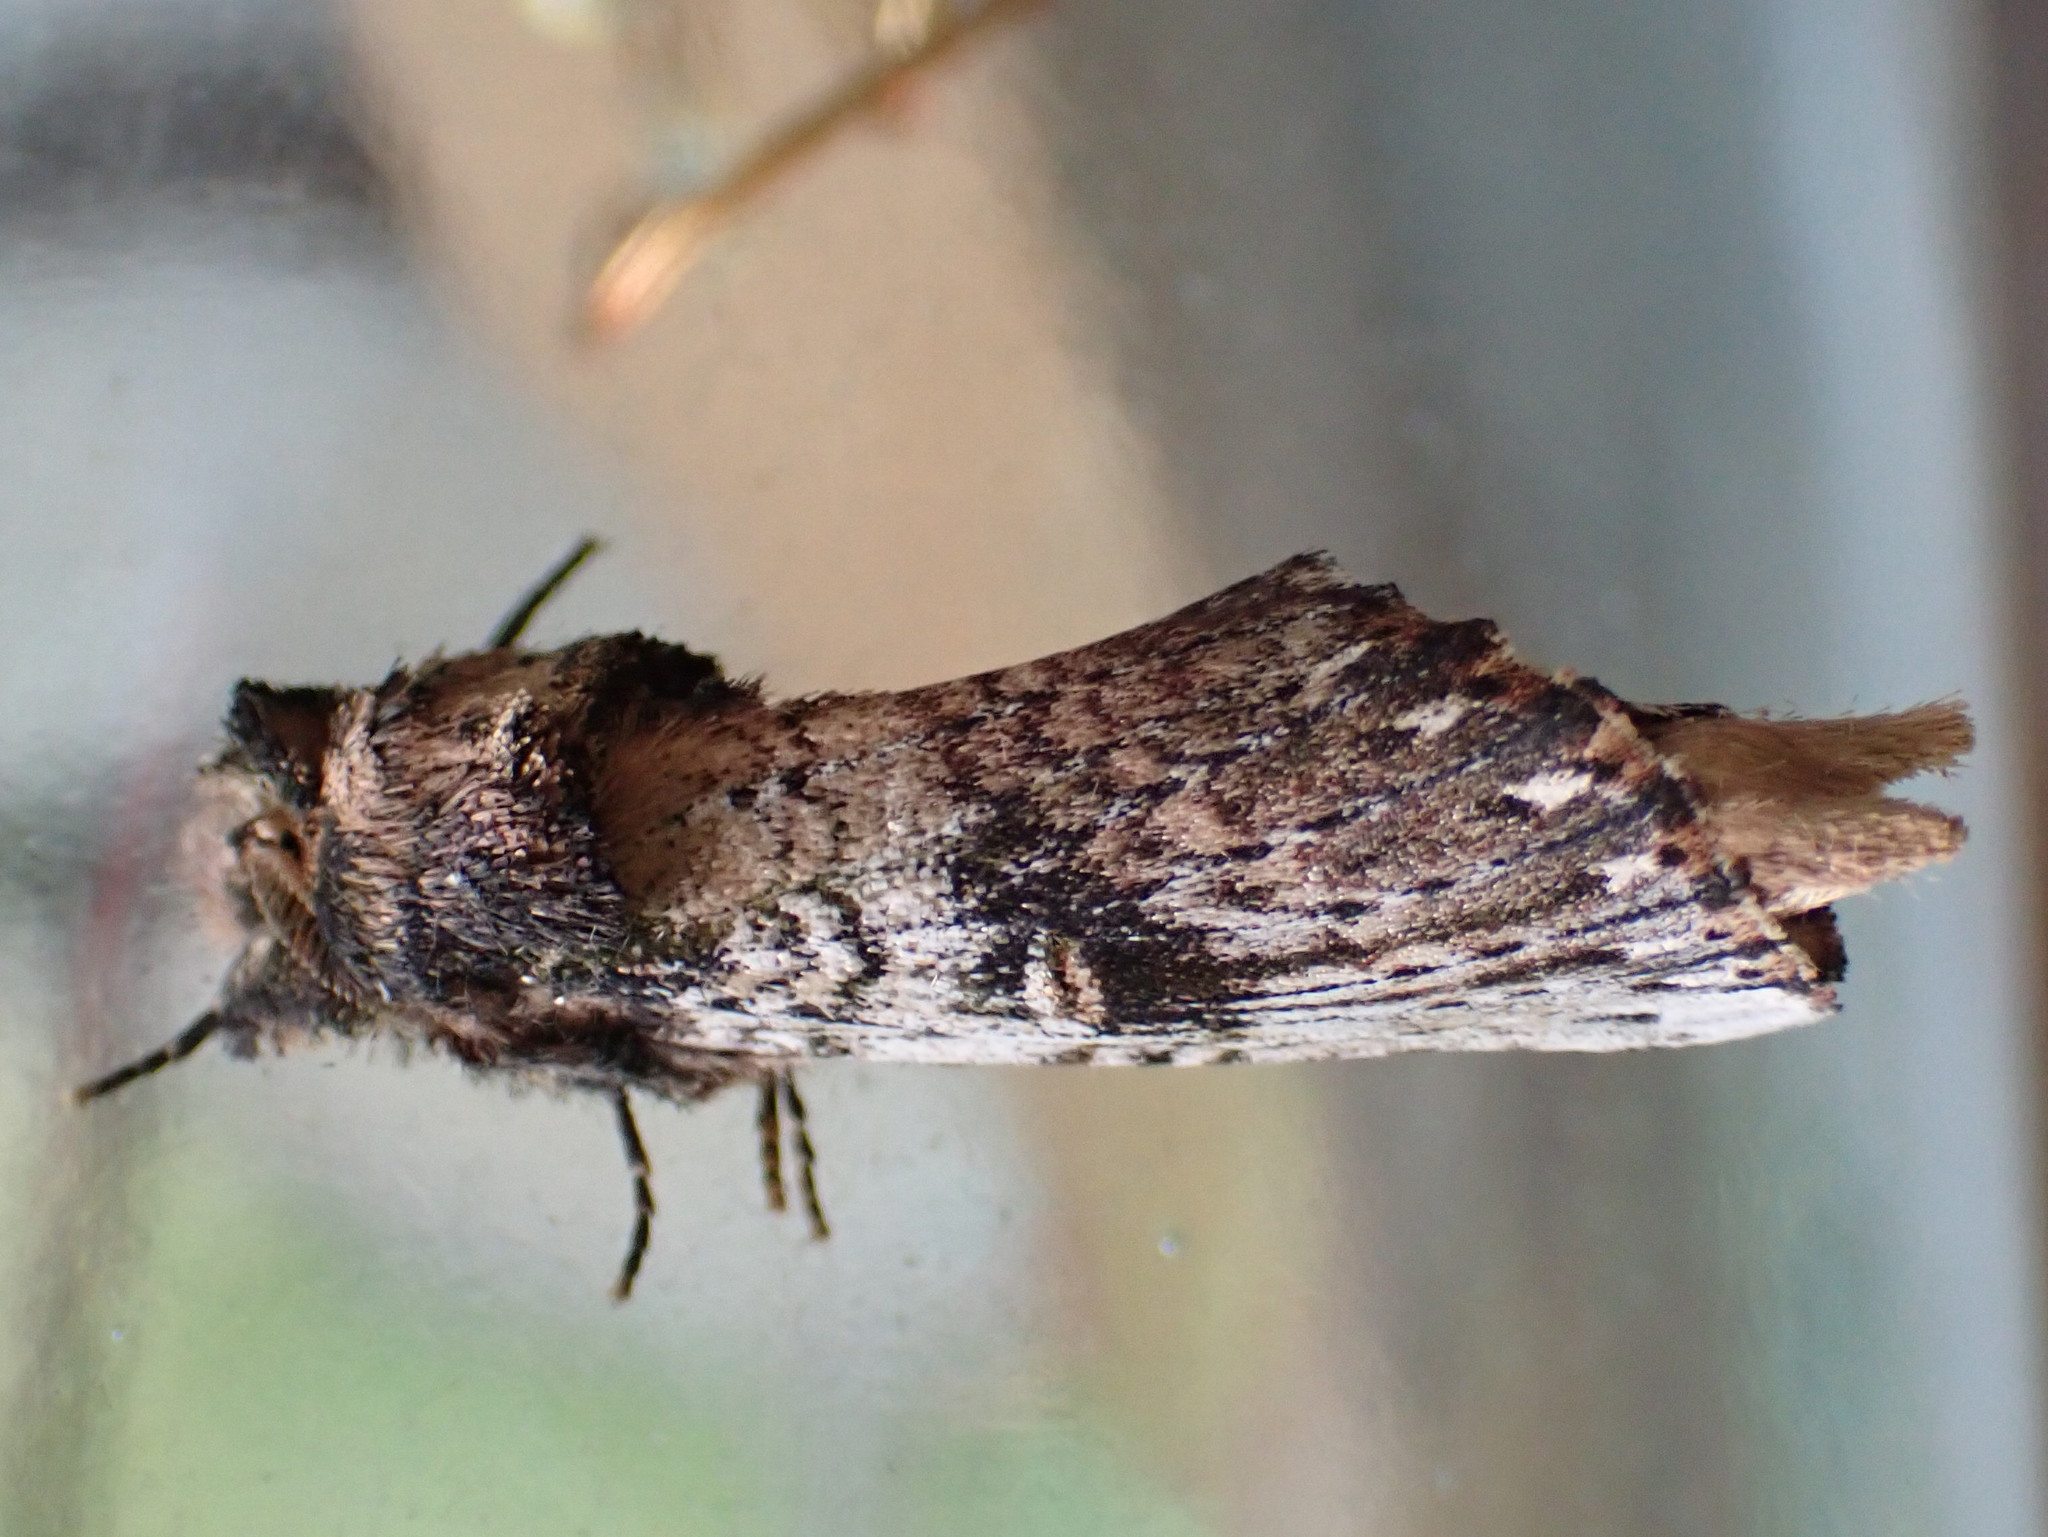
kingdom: Animalia
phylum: Arthropoda
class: Insecta
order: Lepidoptera
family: Notodontidae
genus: Schizura
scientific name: Schizura ipomaeae
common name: Morning-glory prominent
